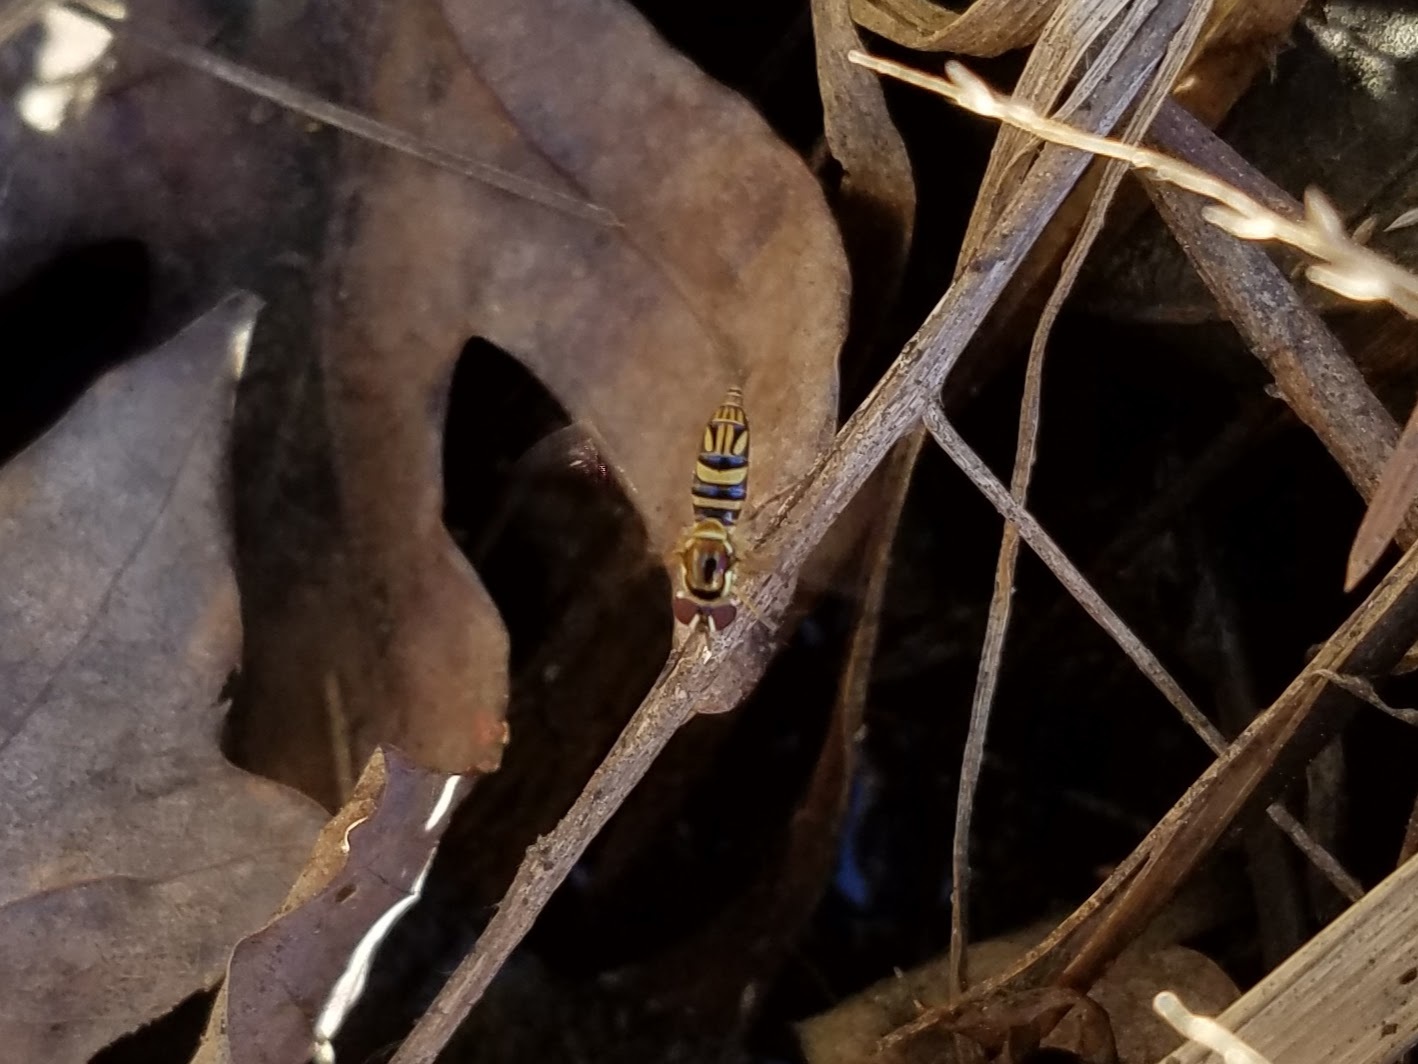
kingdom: Animalia
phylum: Arthropoda
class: Insecta
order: Diptera
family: Syrphidae
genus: Allograpta
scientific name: Allograpta obliqua
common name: Common oblique syrphid
